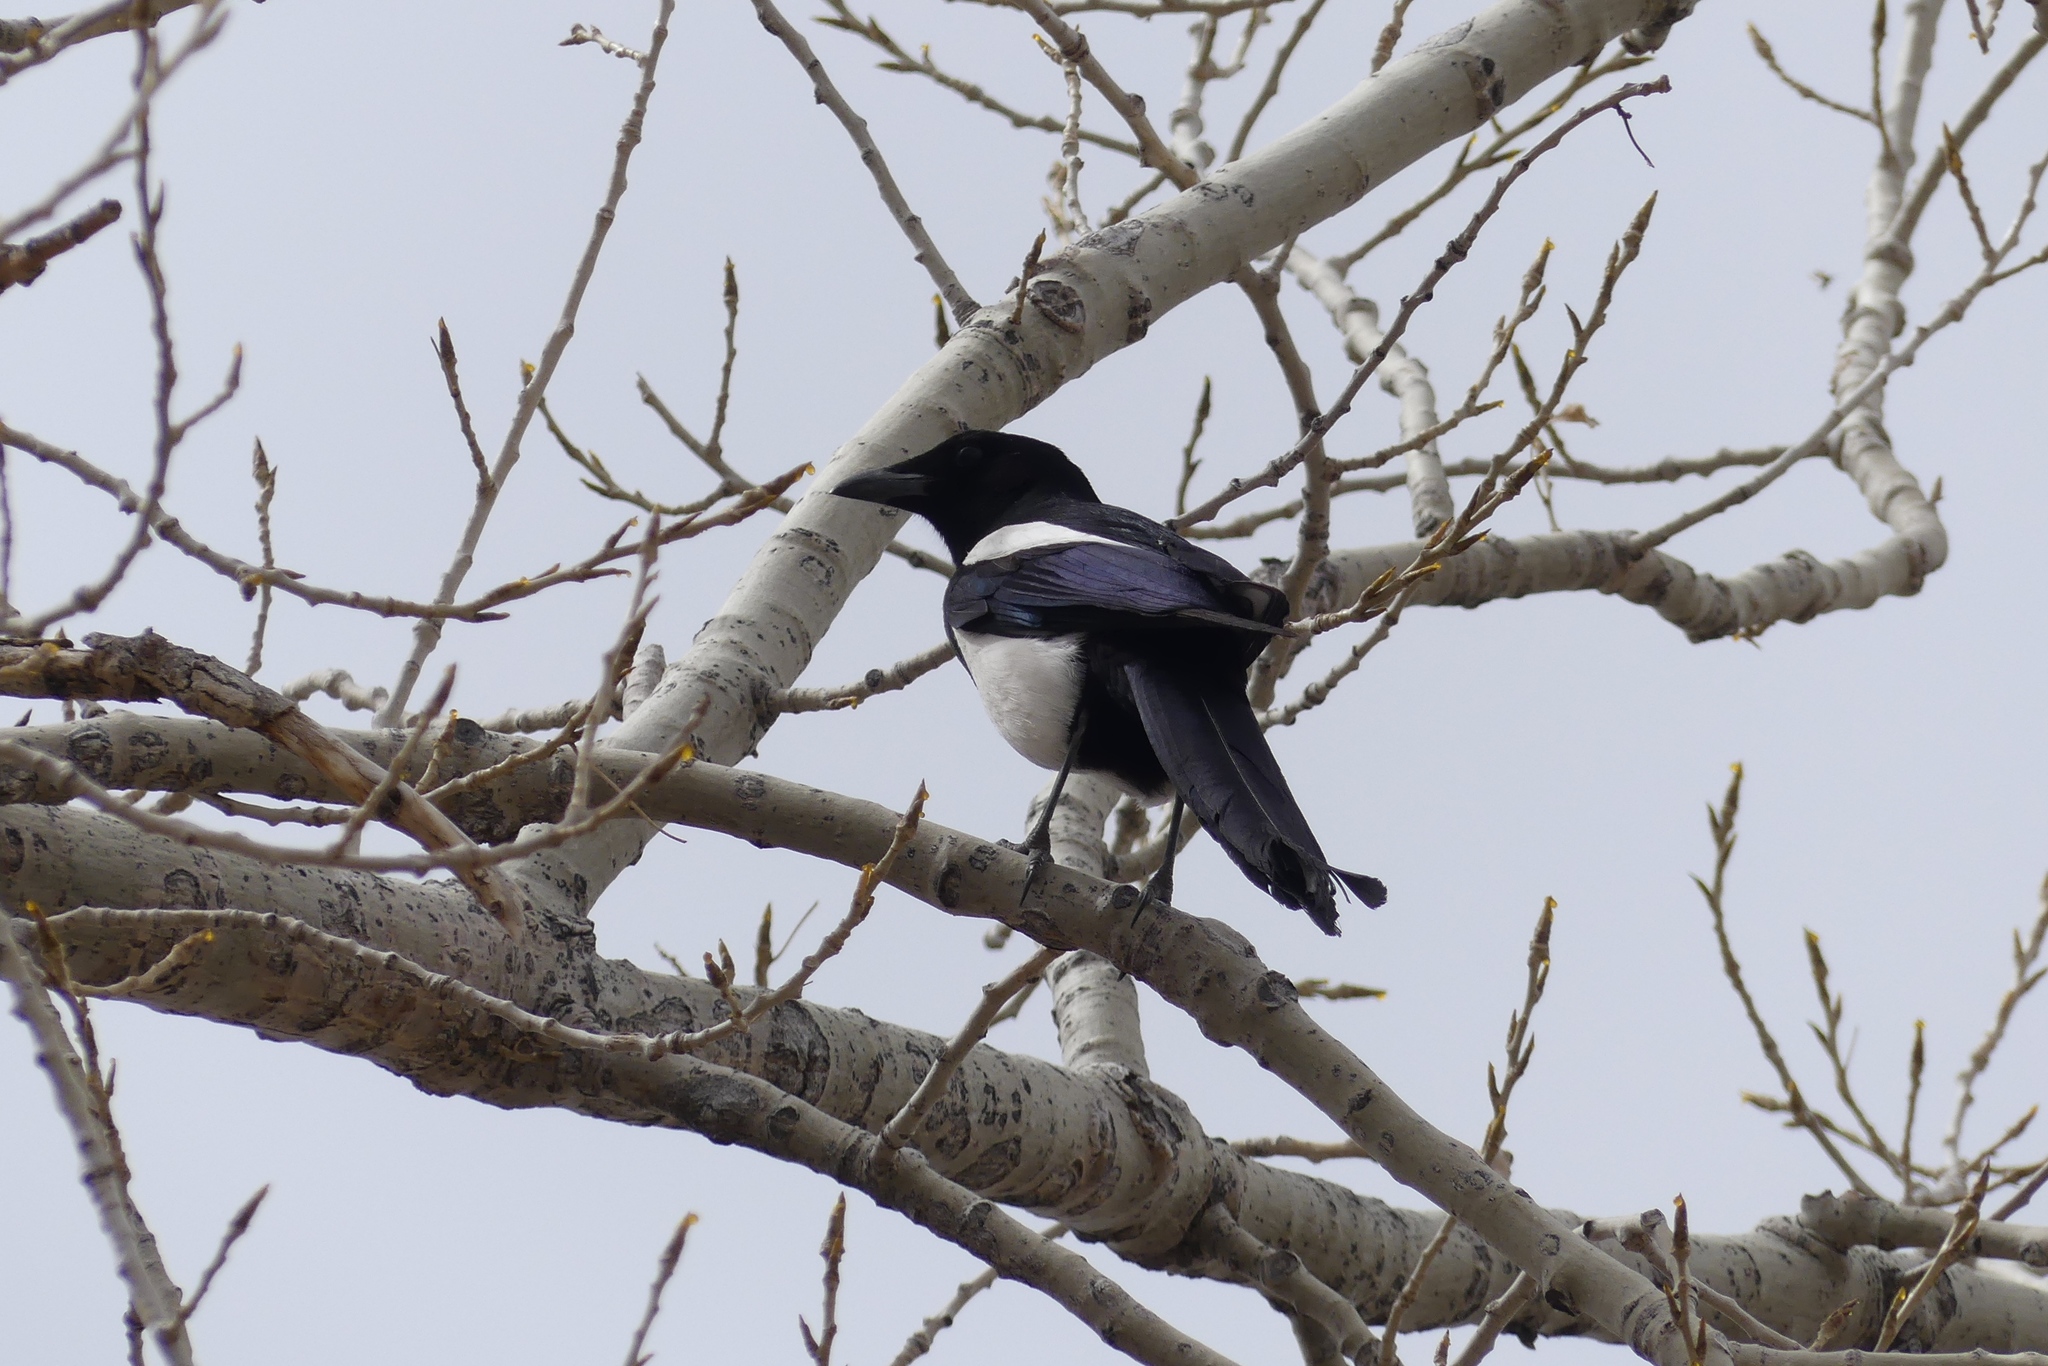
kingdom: Animalia
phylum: Chordata
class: Aves
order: Passeriformes
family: Corvidae
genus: Pica
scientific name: Pica hudsonia
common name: Black-billed magpie
